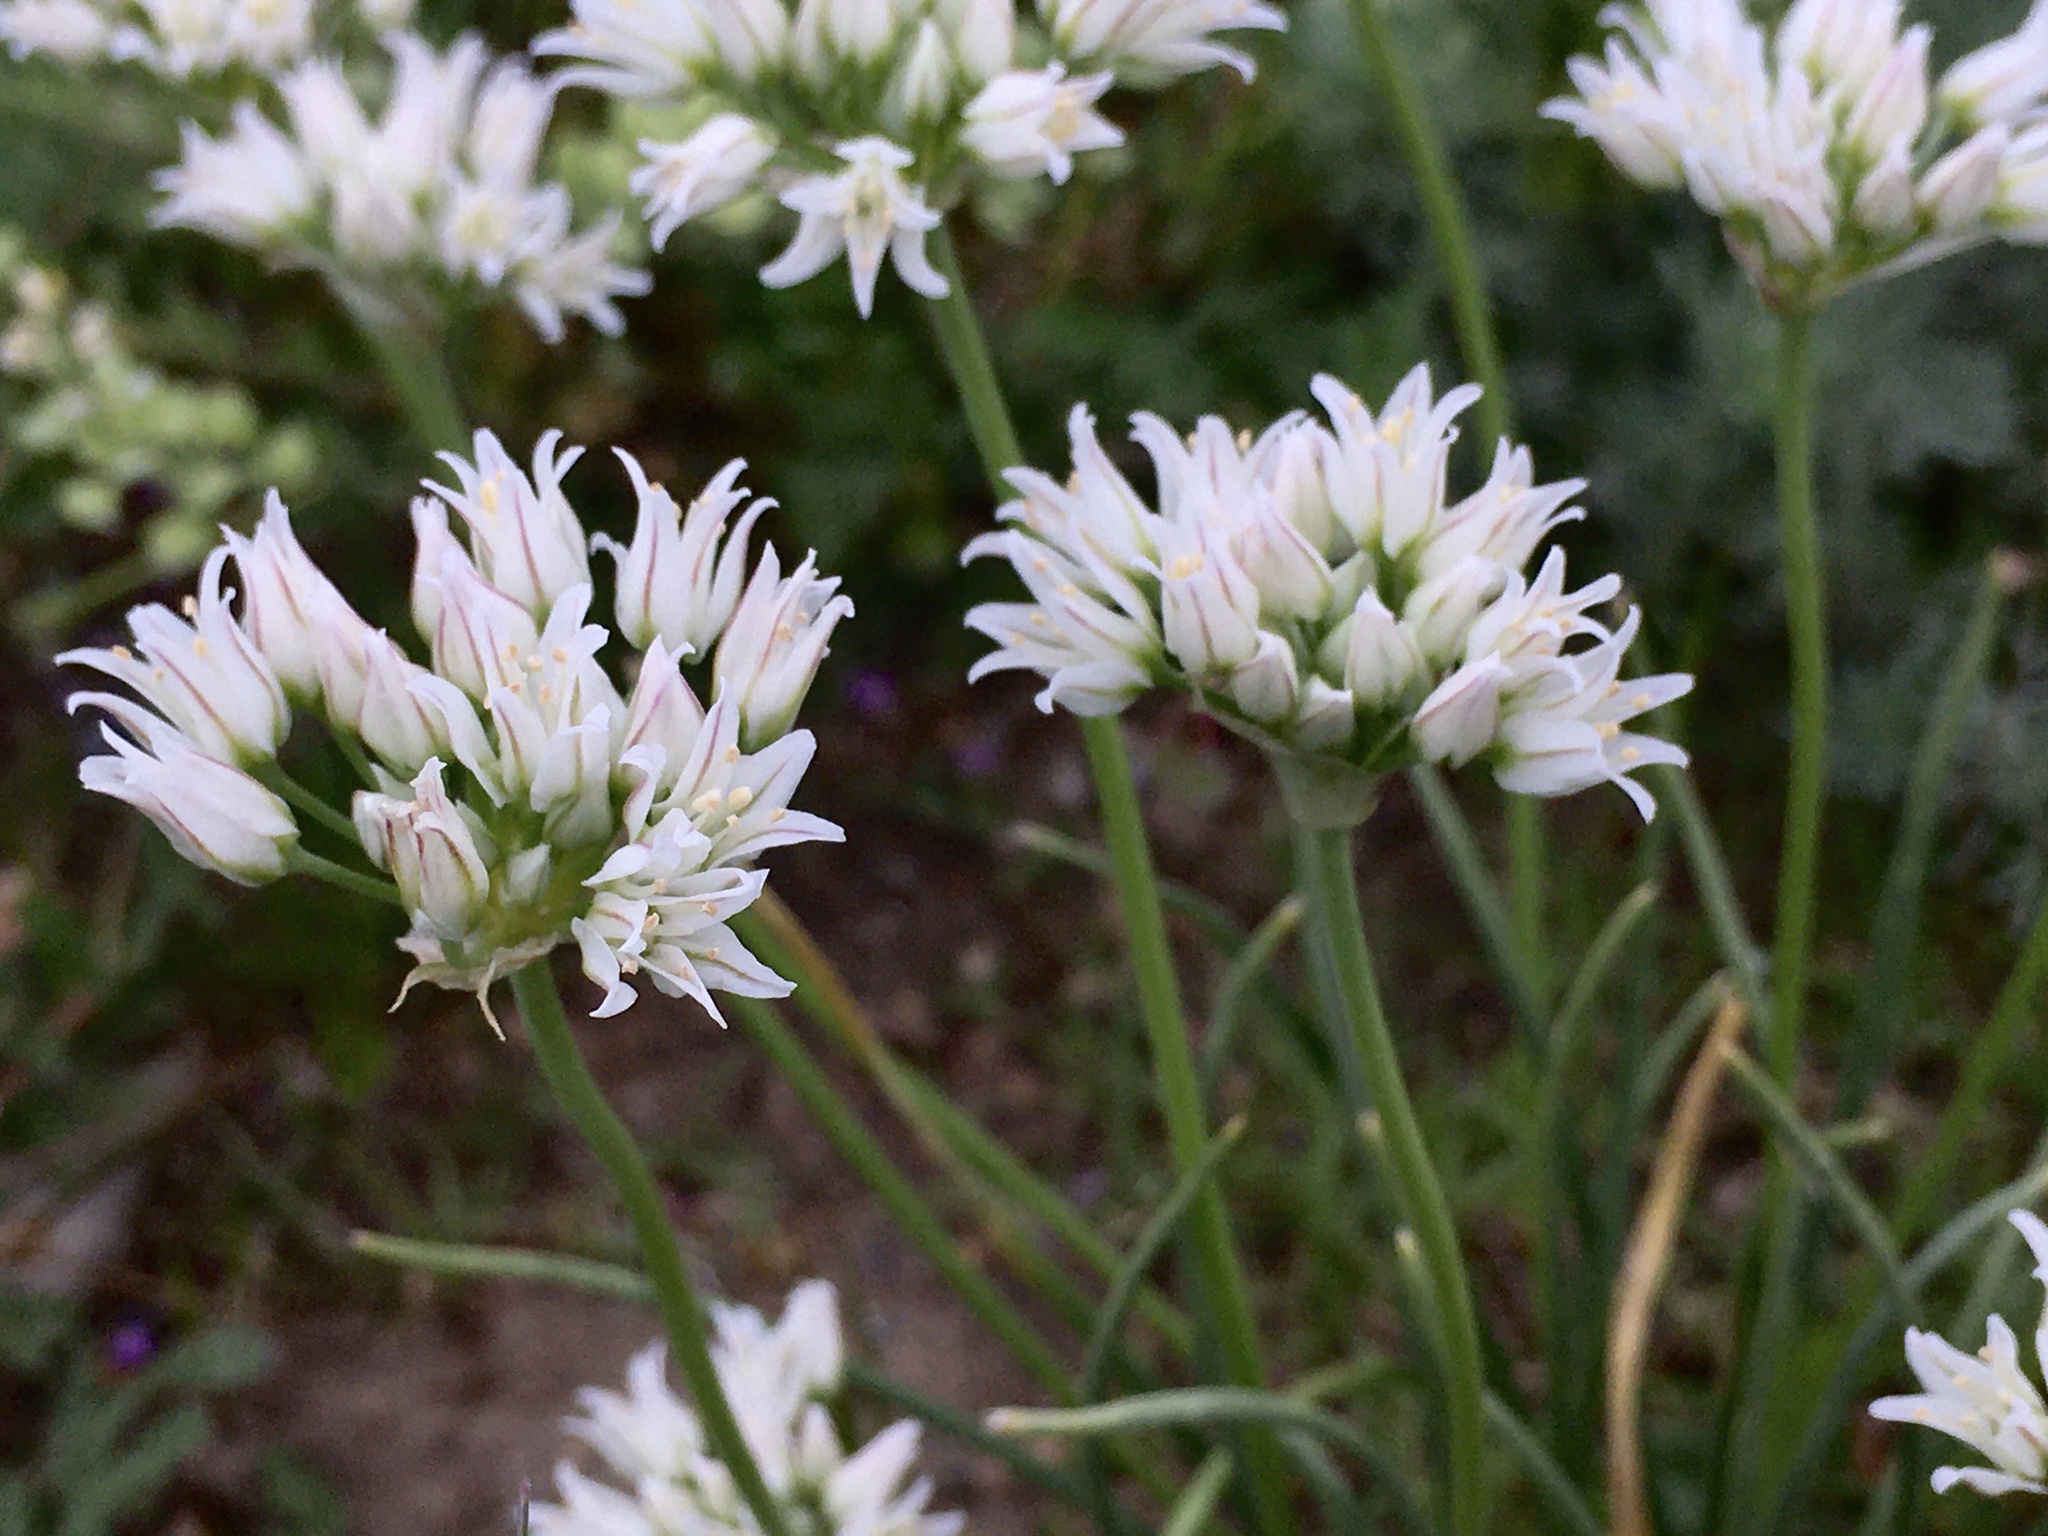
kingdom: Plantae
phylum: Tracheophyta
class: Liliopsida
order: Asparagales
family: Amaryllidaceae
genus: Allium
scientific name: Allium textile
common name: Prairie onion
